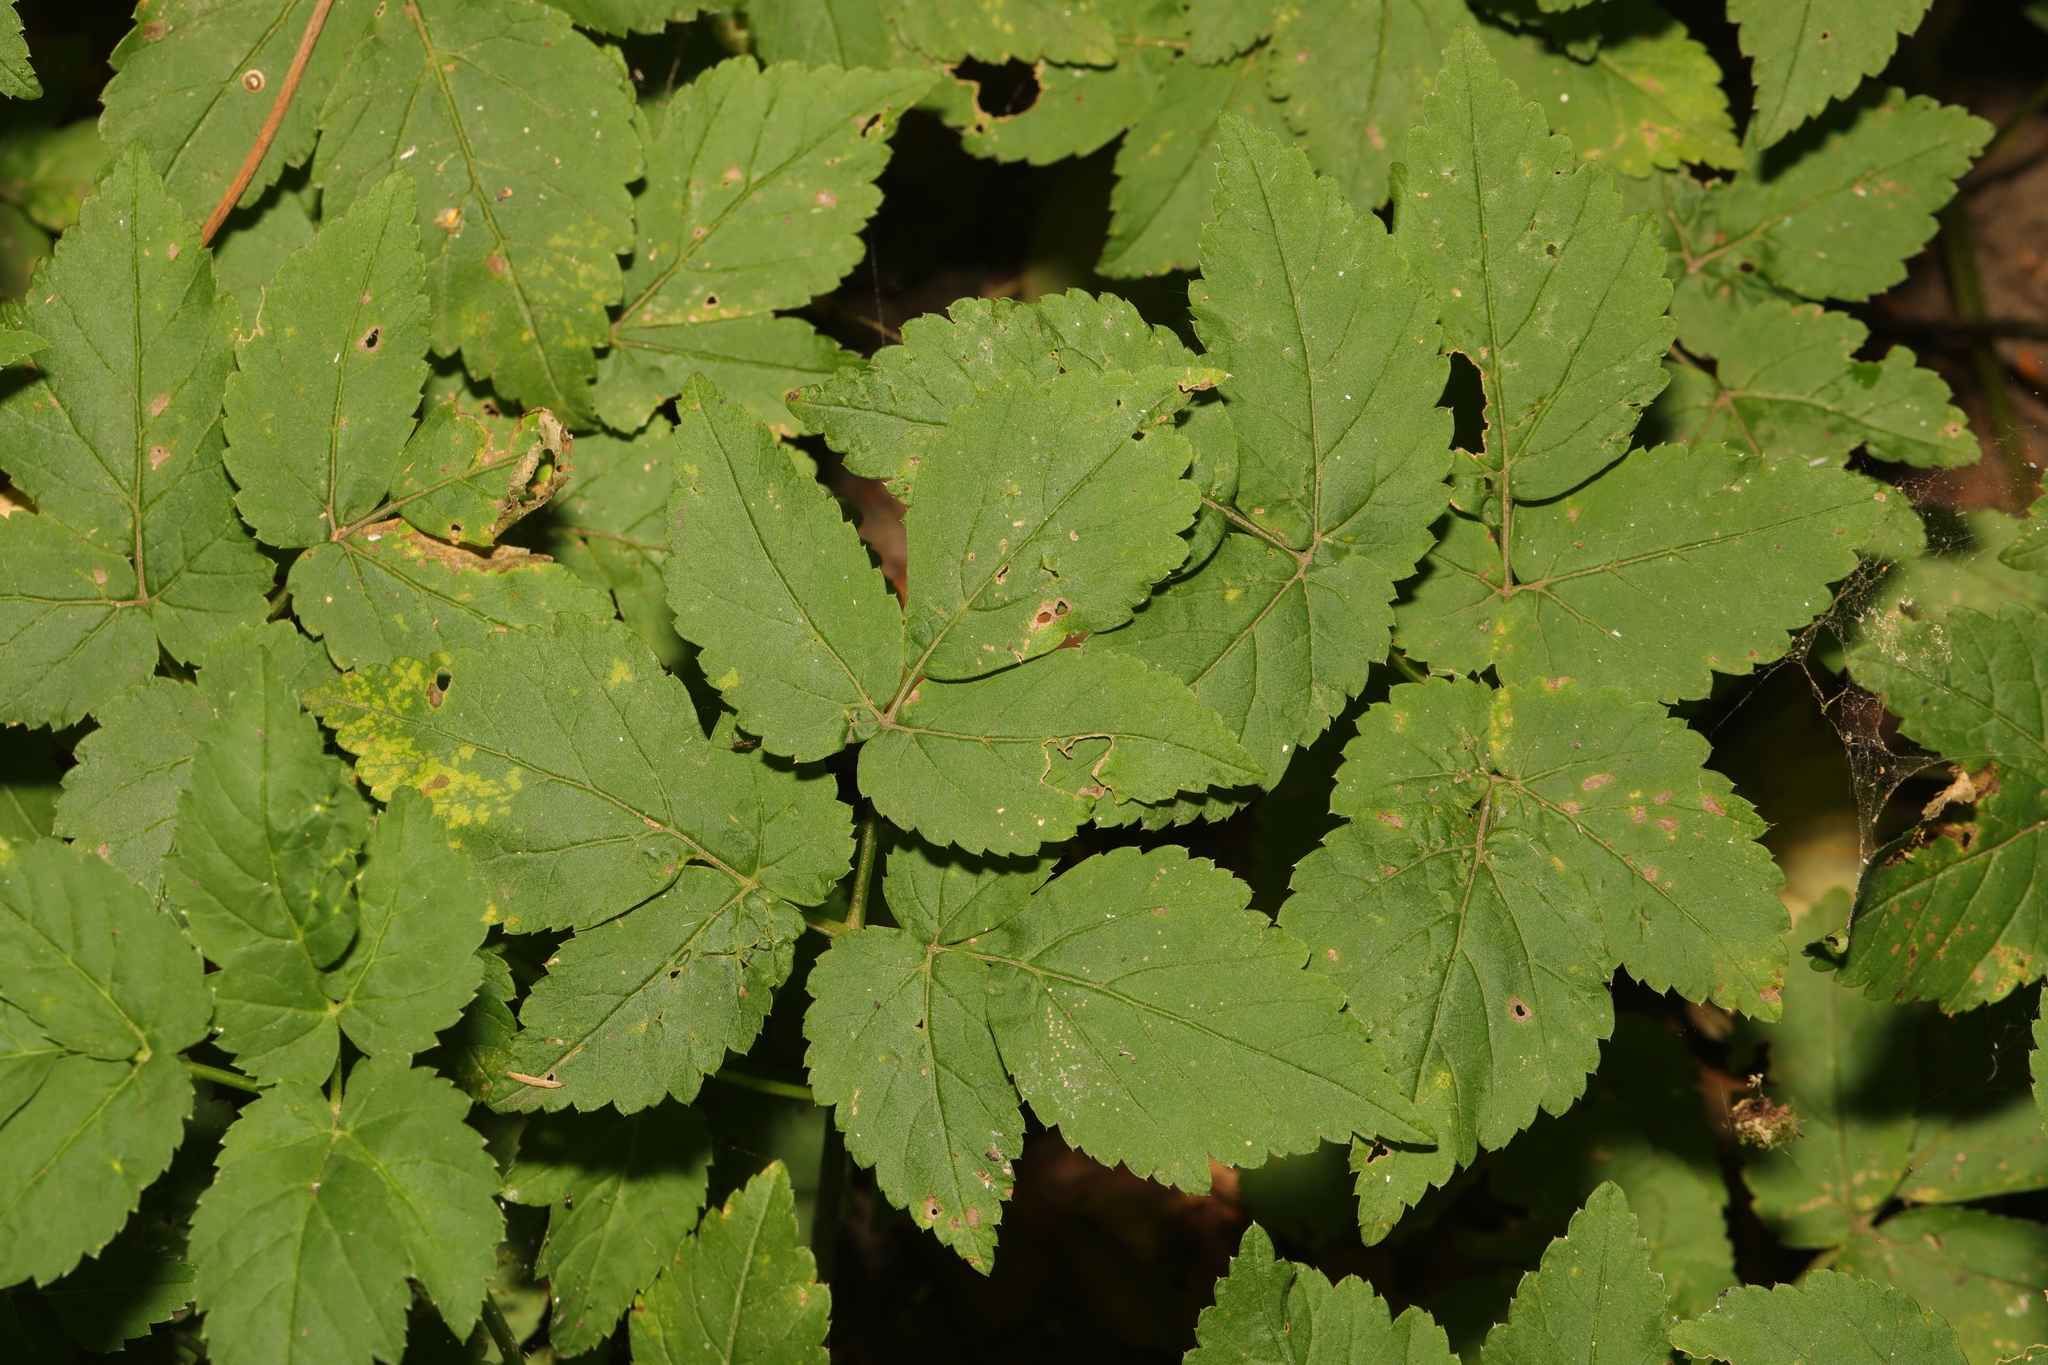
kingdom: Plantae
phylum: Tracheophyta
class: Magnoliopsida
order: Apiales
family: Apiaceae
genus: Aegopodium
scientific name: Aegopodium podagraria
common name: Ground-elder
